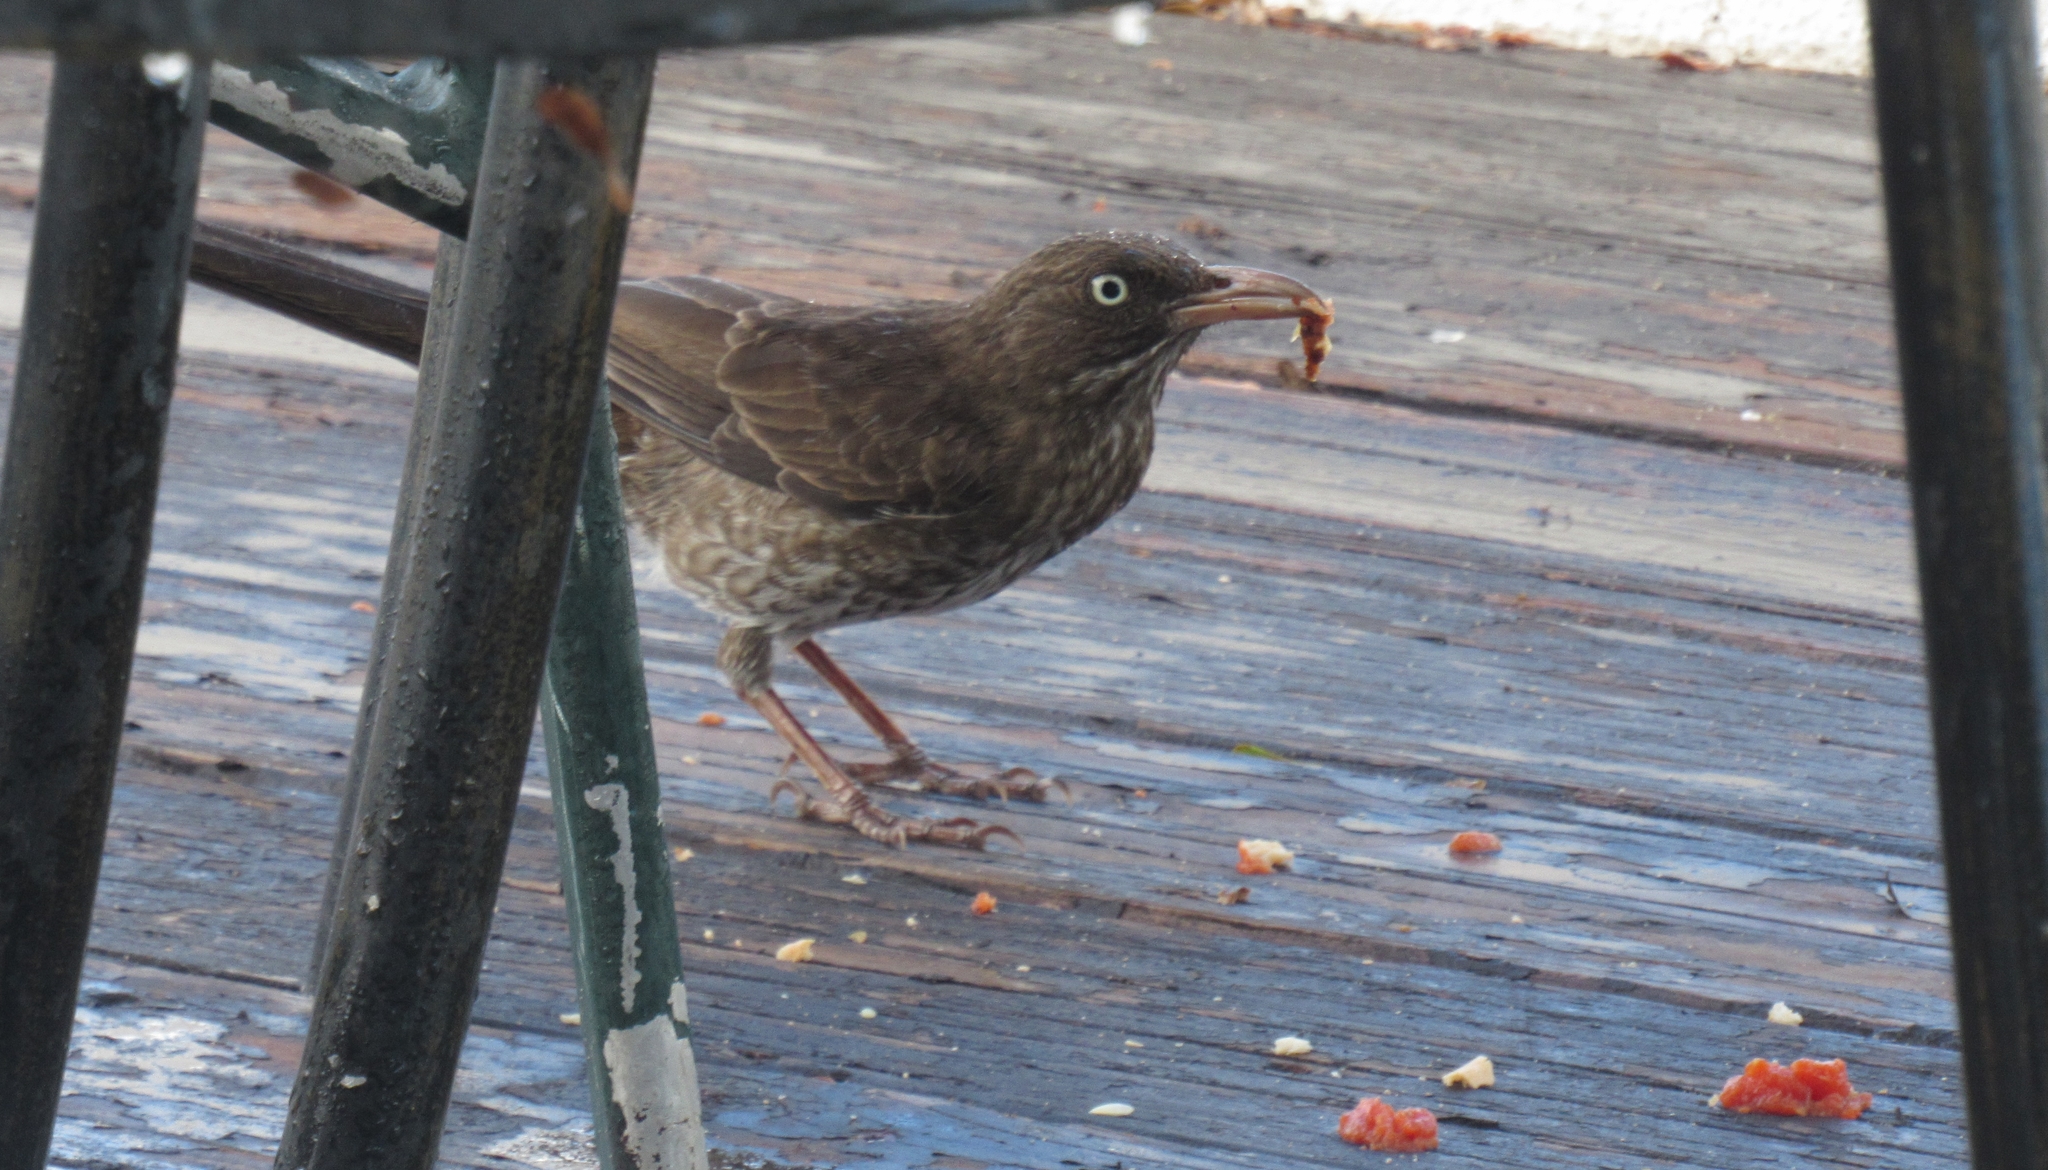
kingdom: Animalia
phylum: Chordata
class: Aves
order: Passeriformes
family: Mimidae
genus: Margarops
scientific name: Margarops fuscatus
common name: Pearly-eyed thrasher
